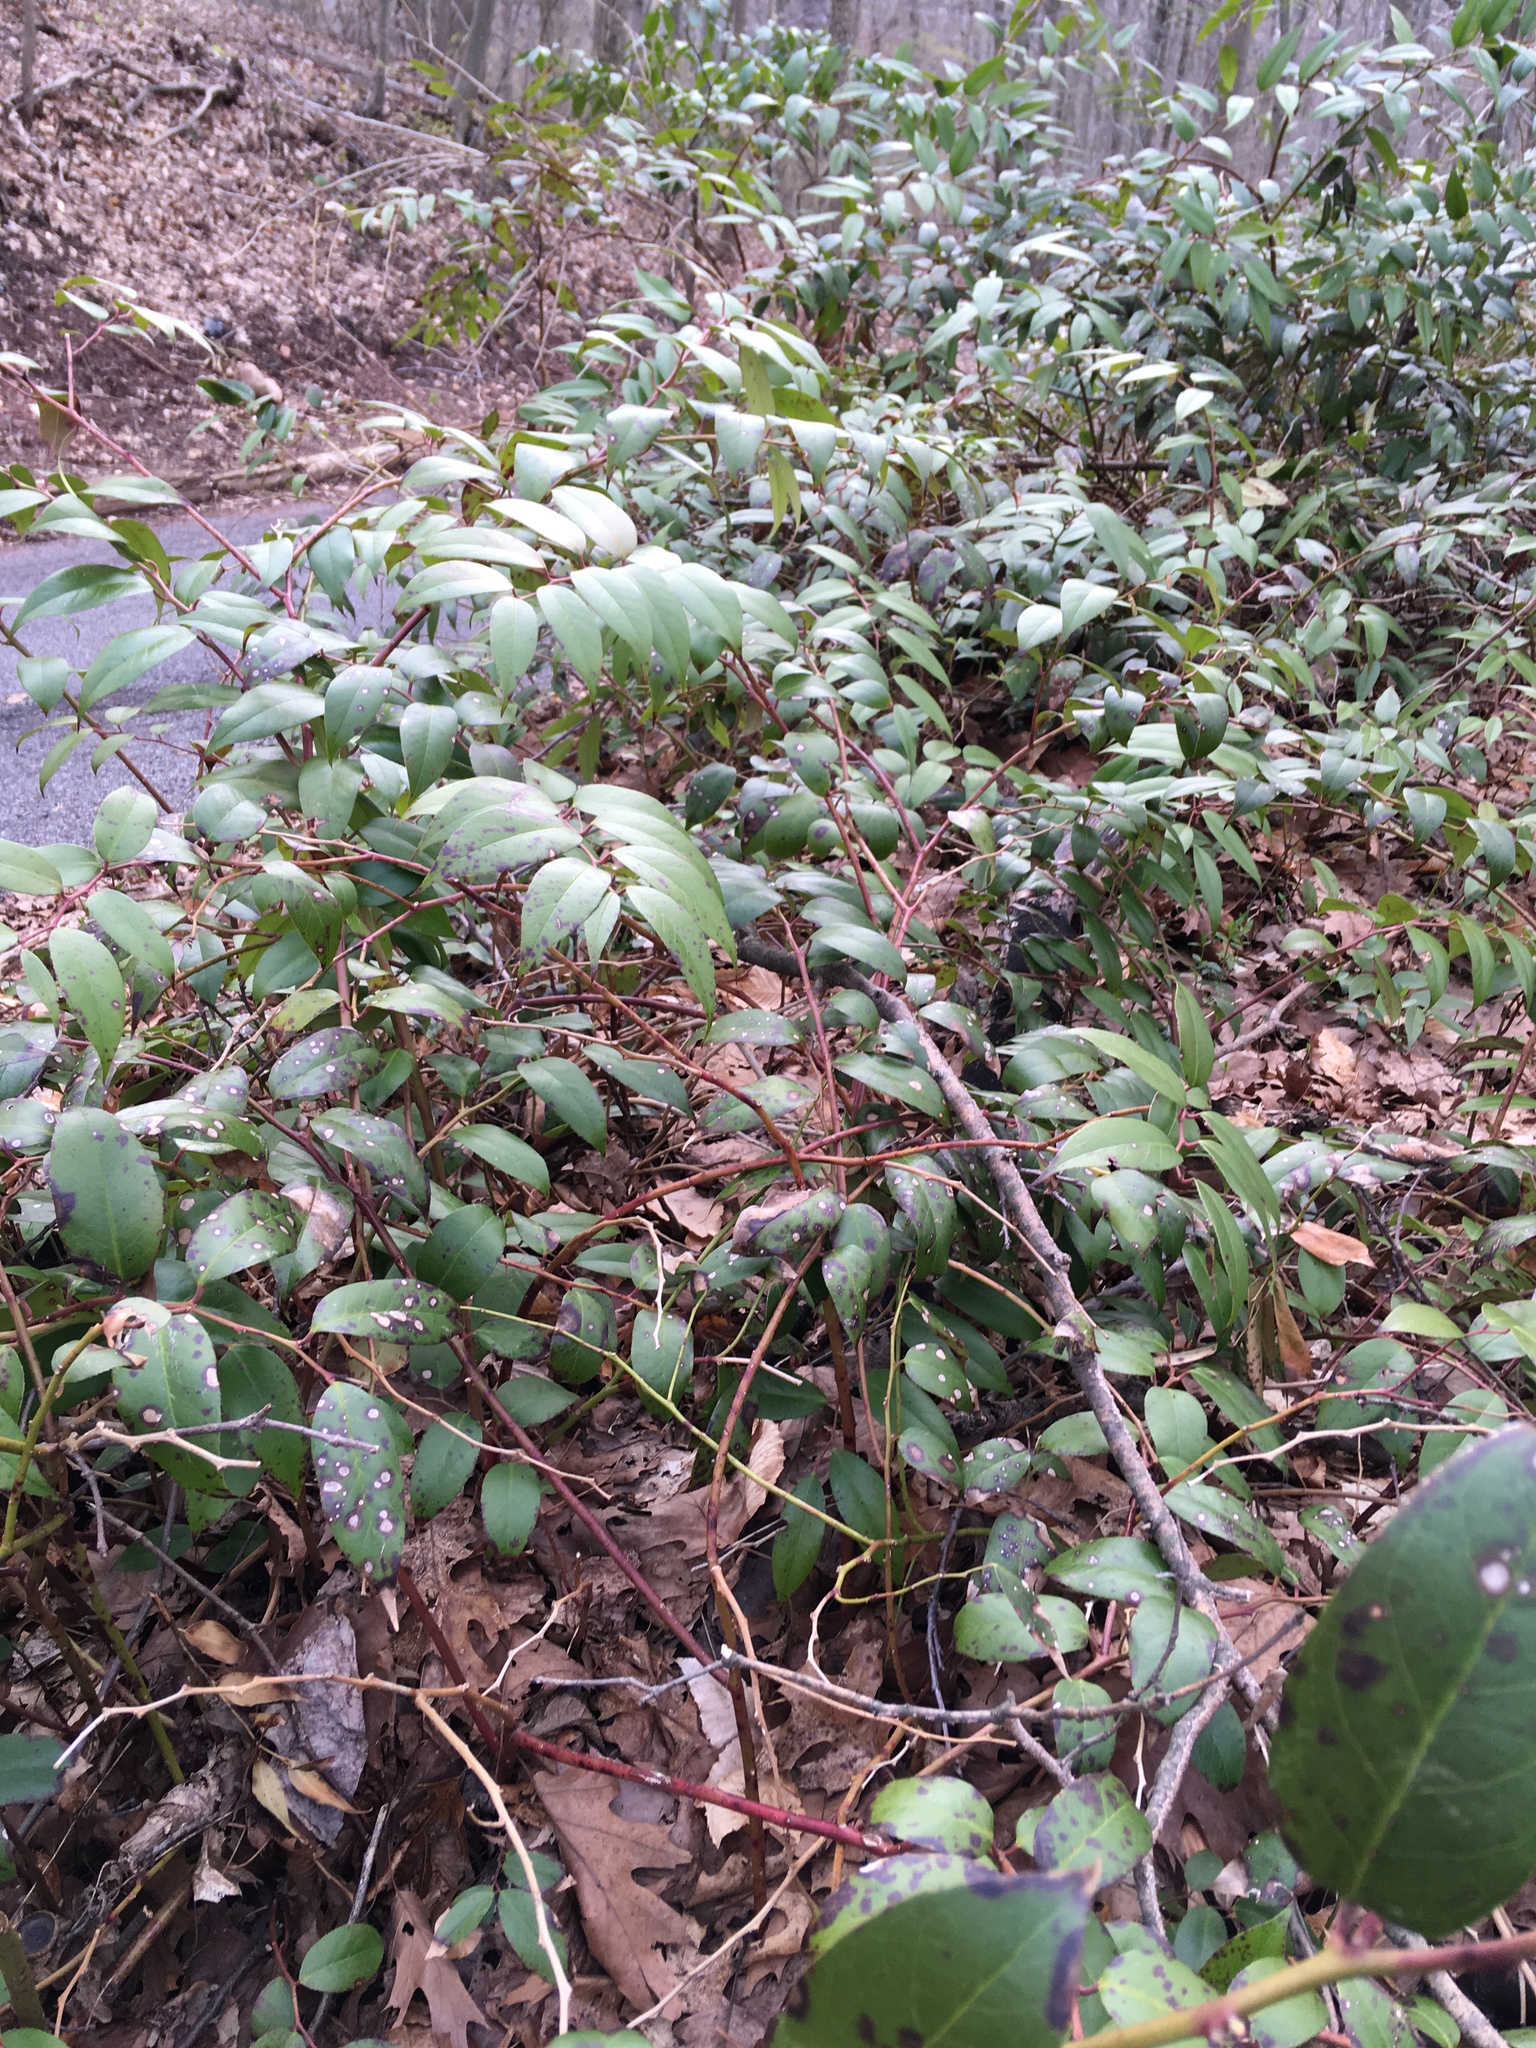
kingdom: Plantae
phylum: Tracheophyta
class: Magnoliopsida
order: Ericales
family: Ericaceae
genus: Leucothoe
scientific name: Leucothoe fontanesiana
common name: Fetterbush
